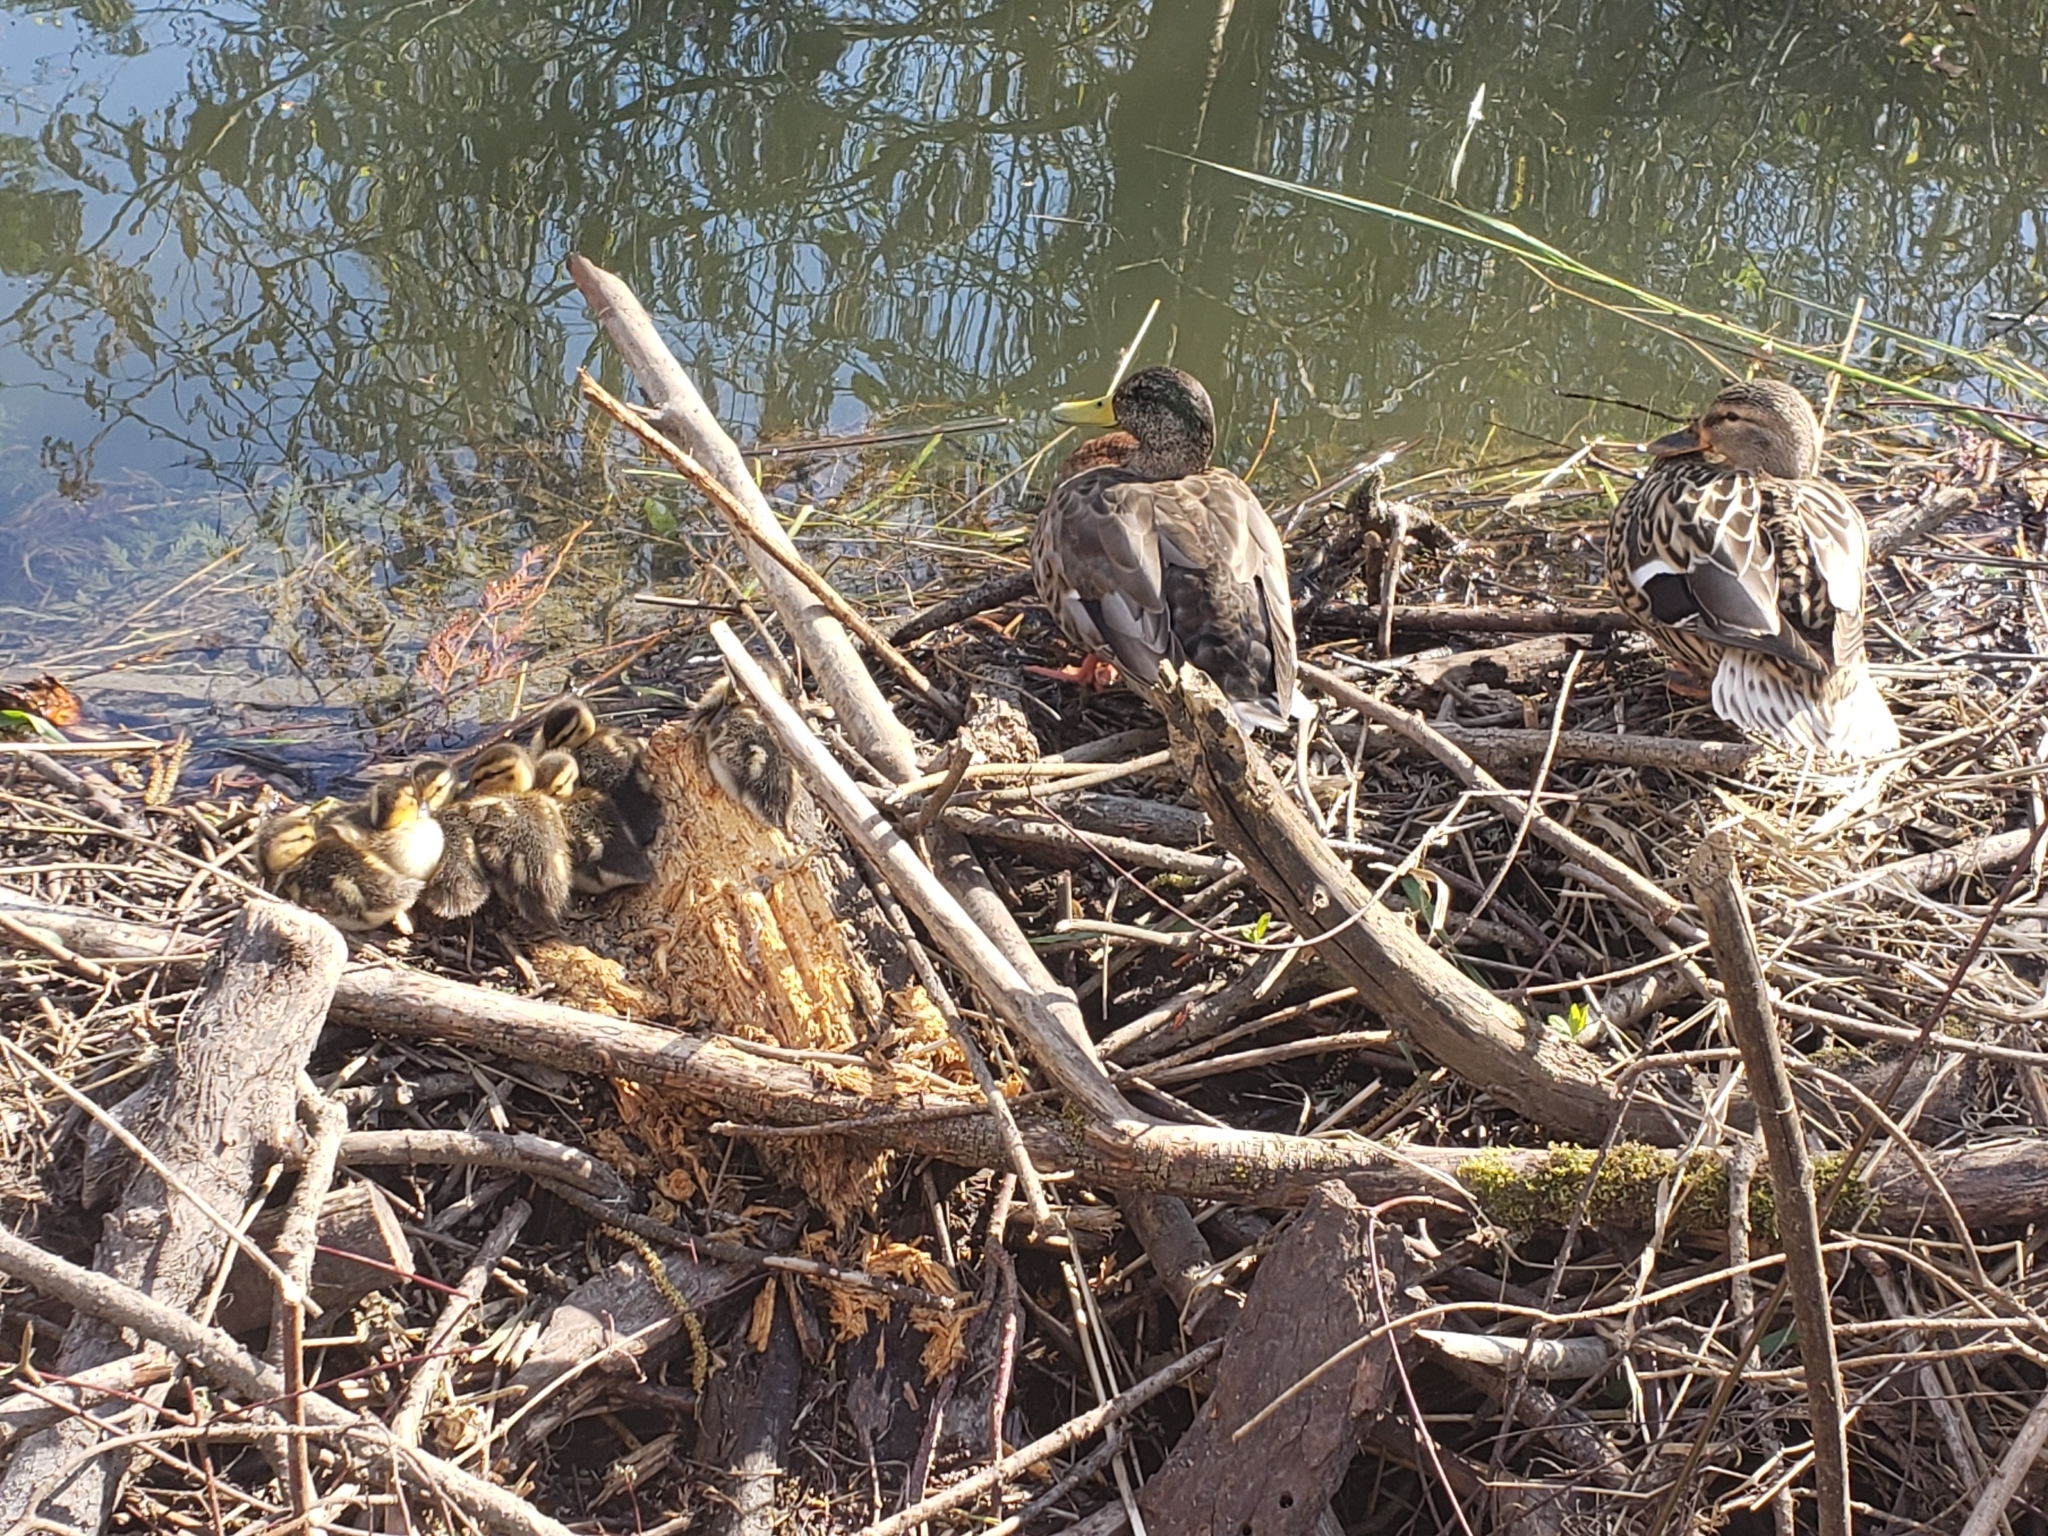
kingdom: Animalia
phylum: Chordata
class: Aves
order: Anseriformes
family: Anatidae
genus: Anas
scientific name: Anas platyrhynchos
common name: Mallard
